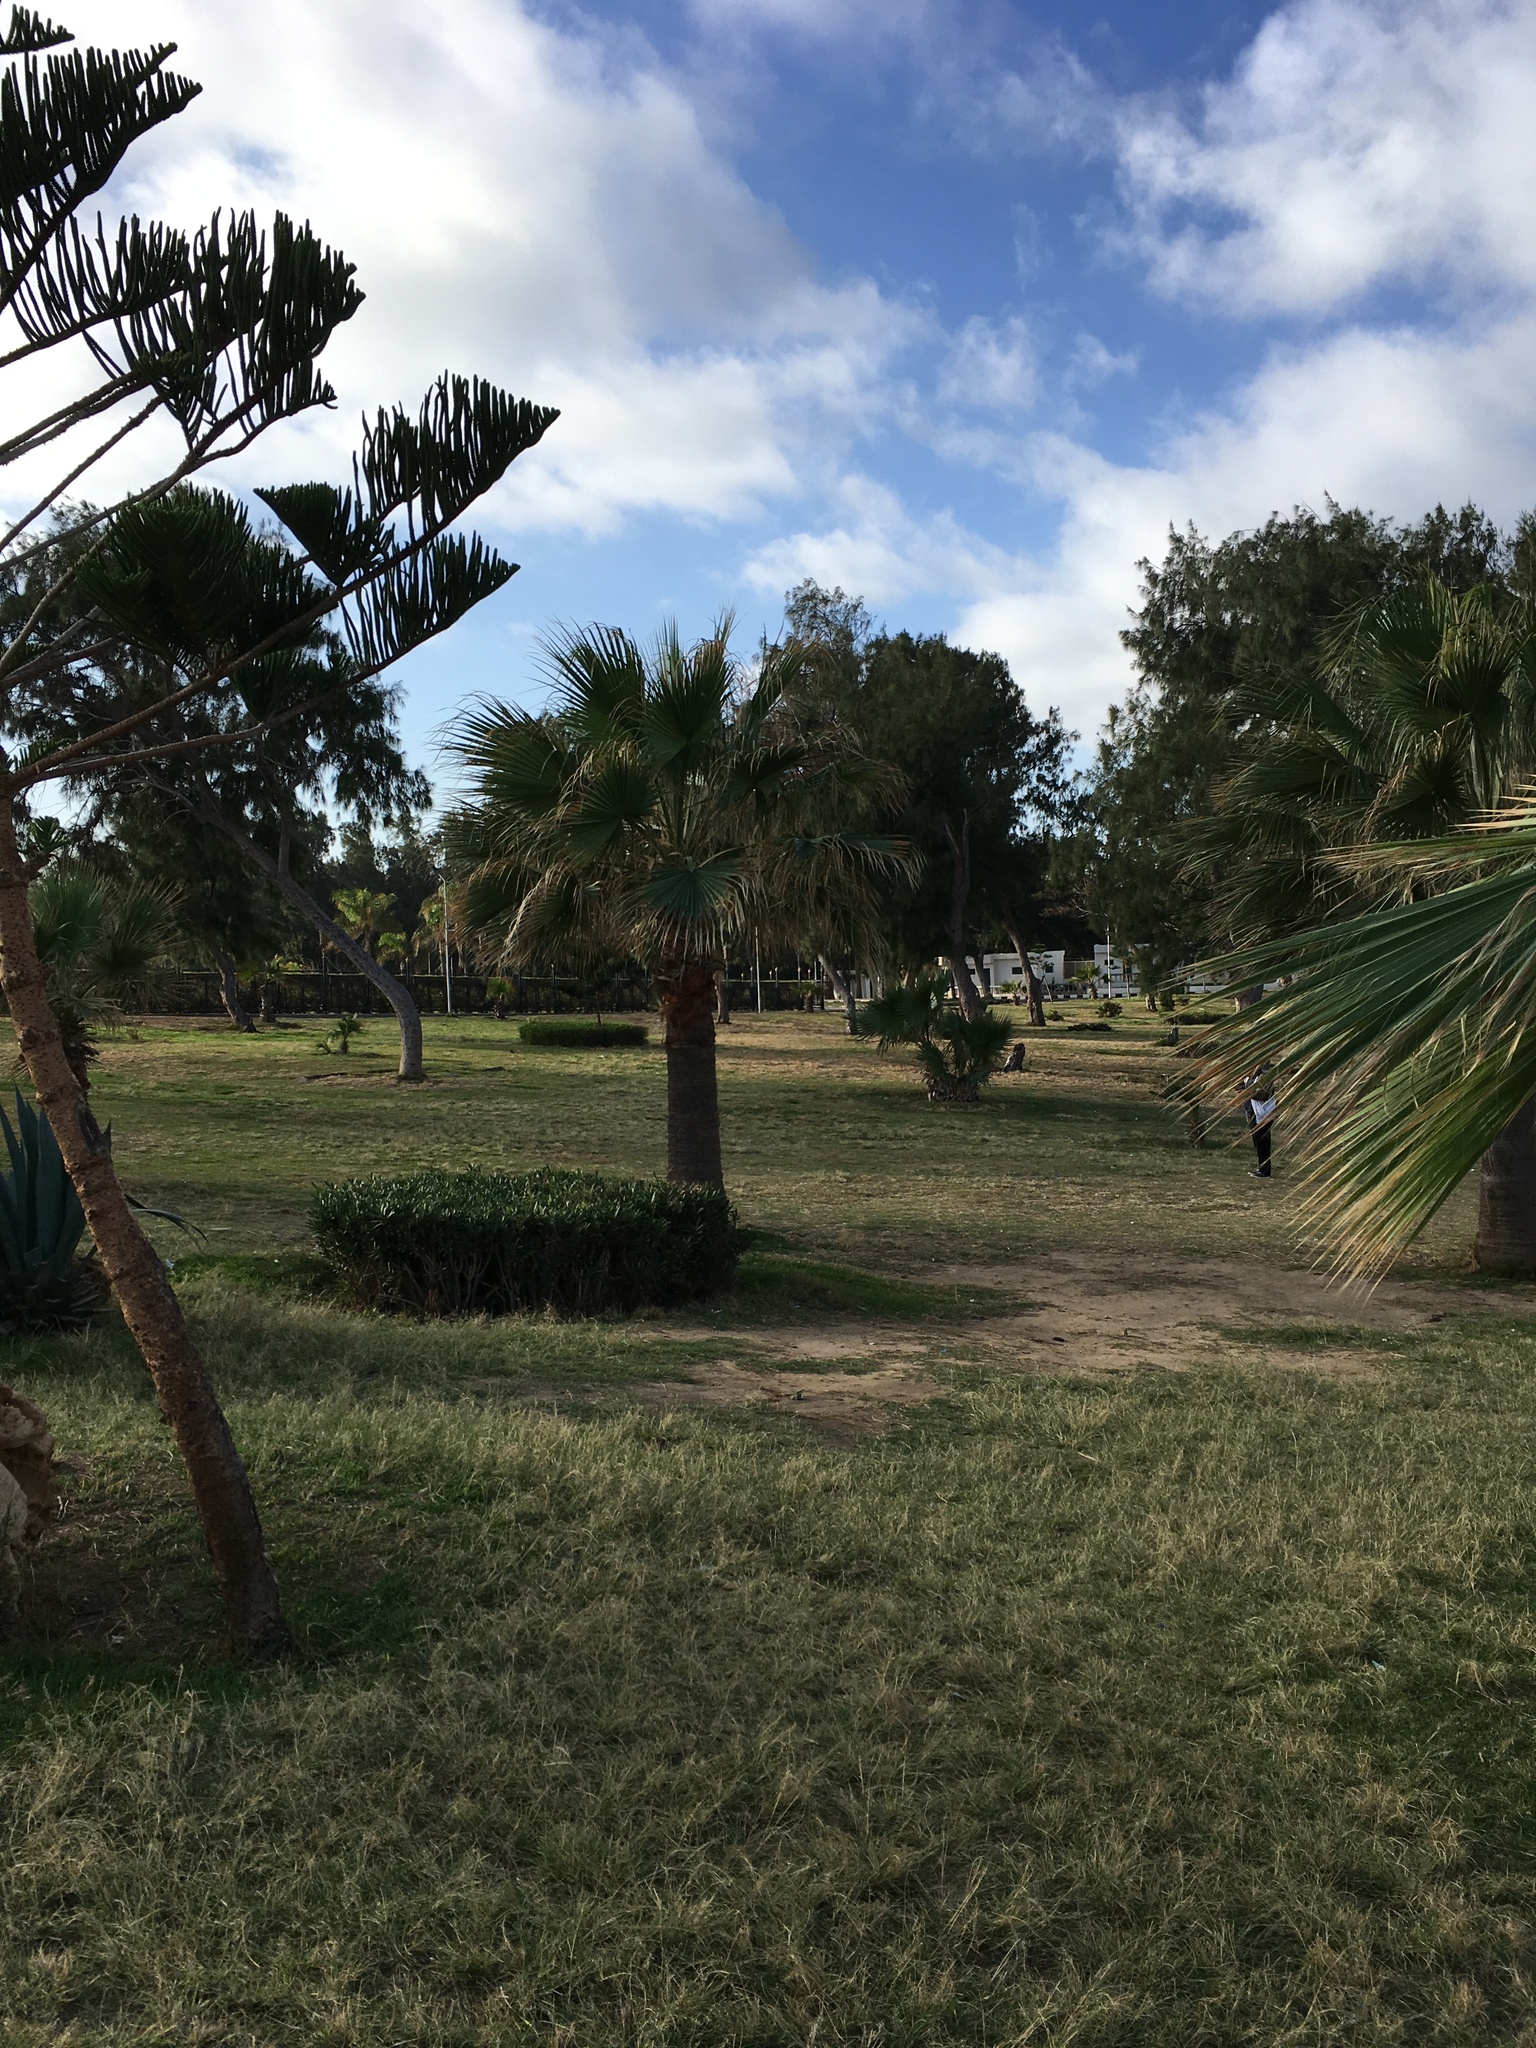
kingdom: Plantae
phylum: Tracheophyta
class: Liliopsida
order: Arecales
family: Arecaceae
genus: Washingtonia
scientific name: Washingtonia robusta
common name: Mexican fan palm
